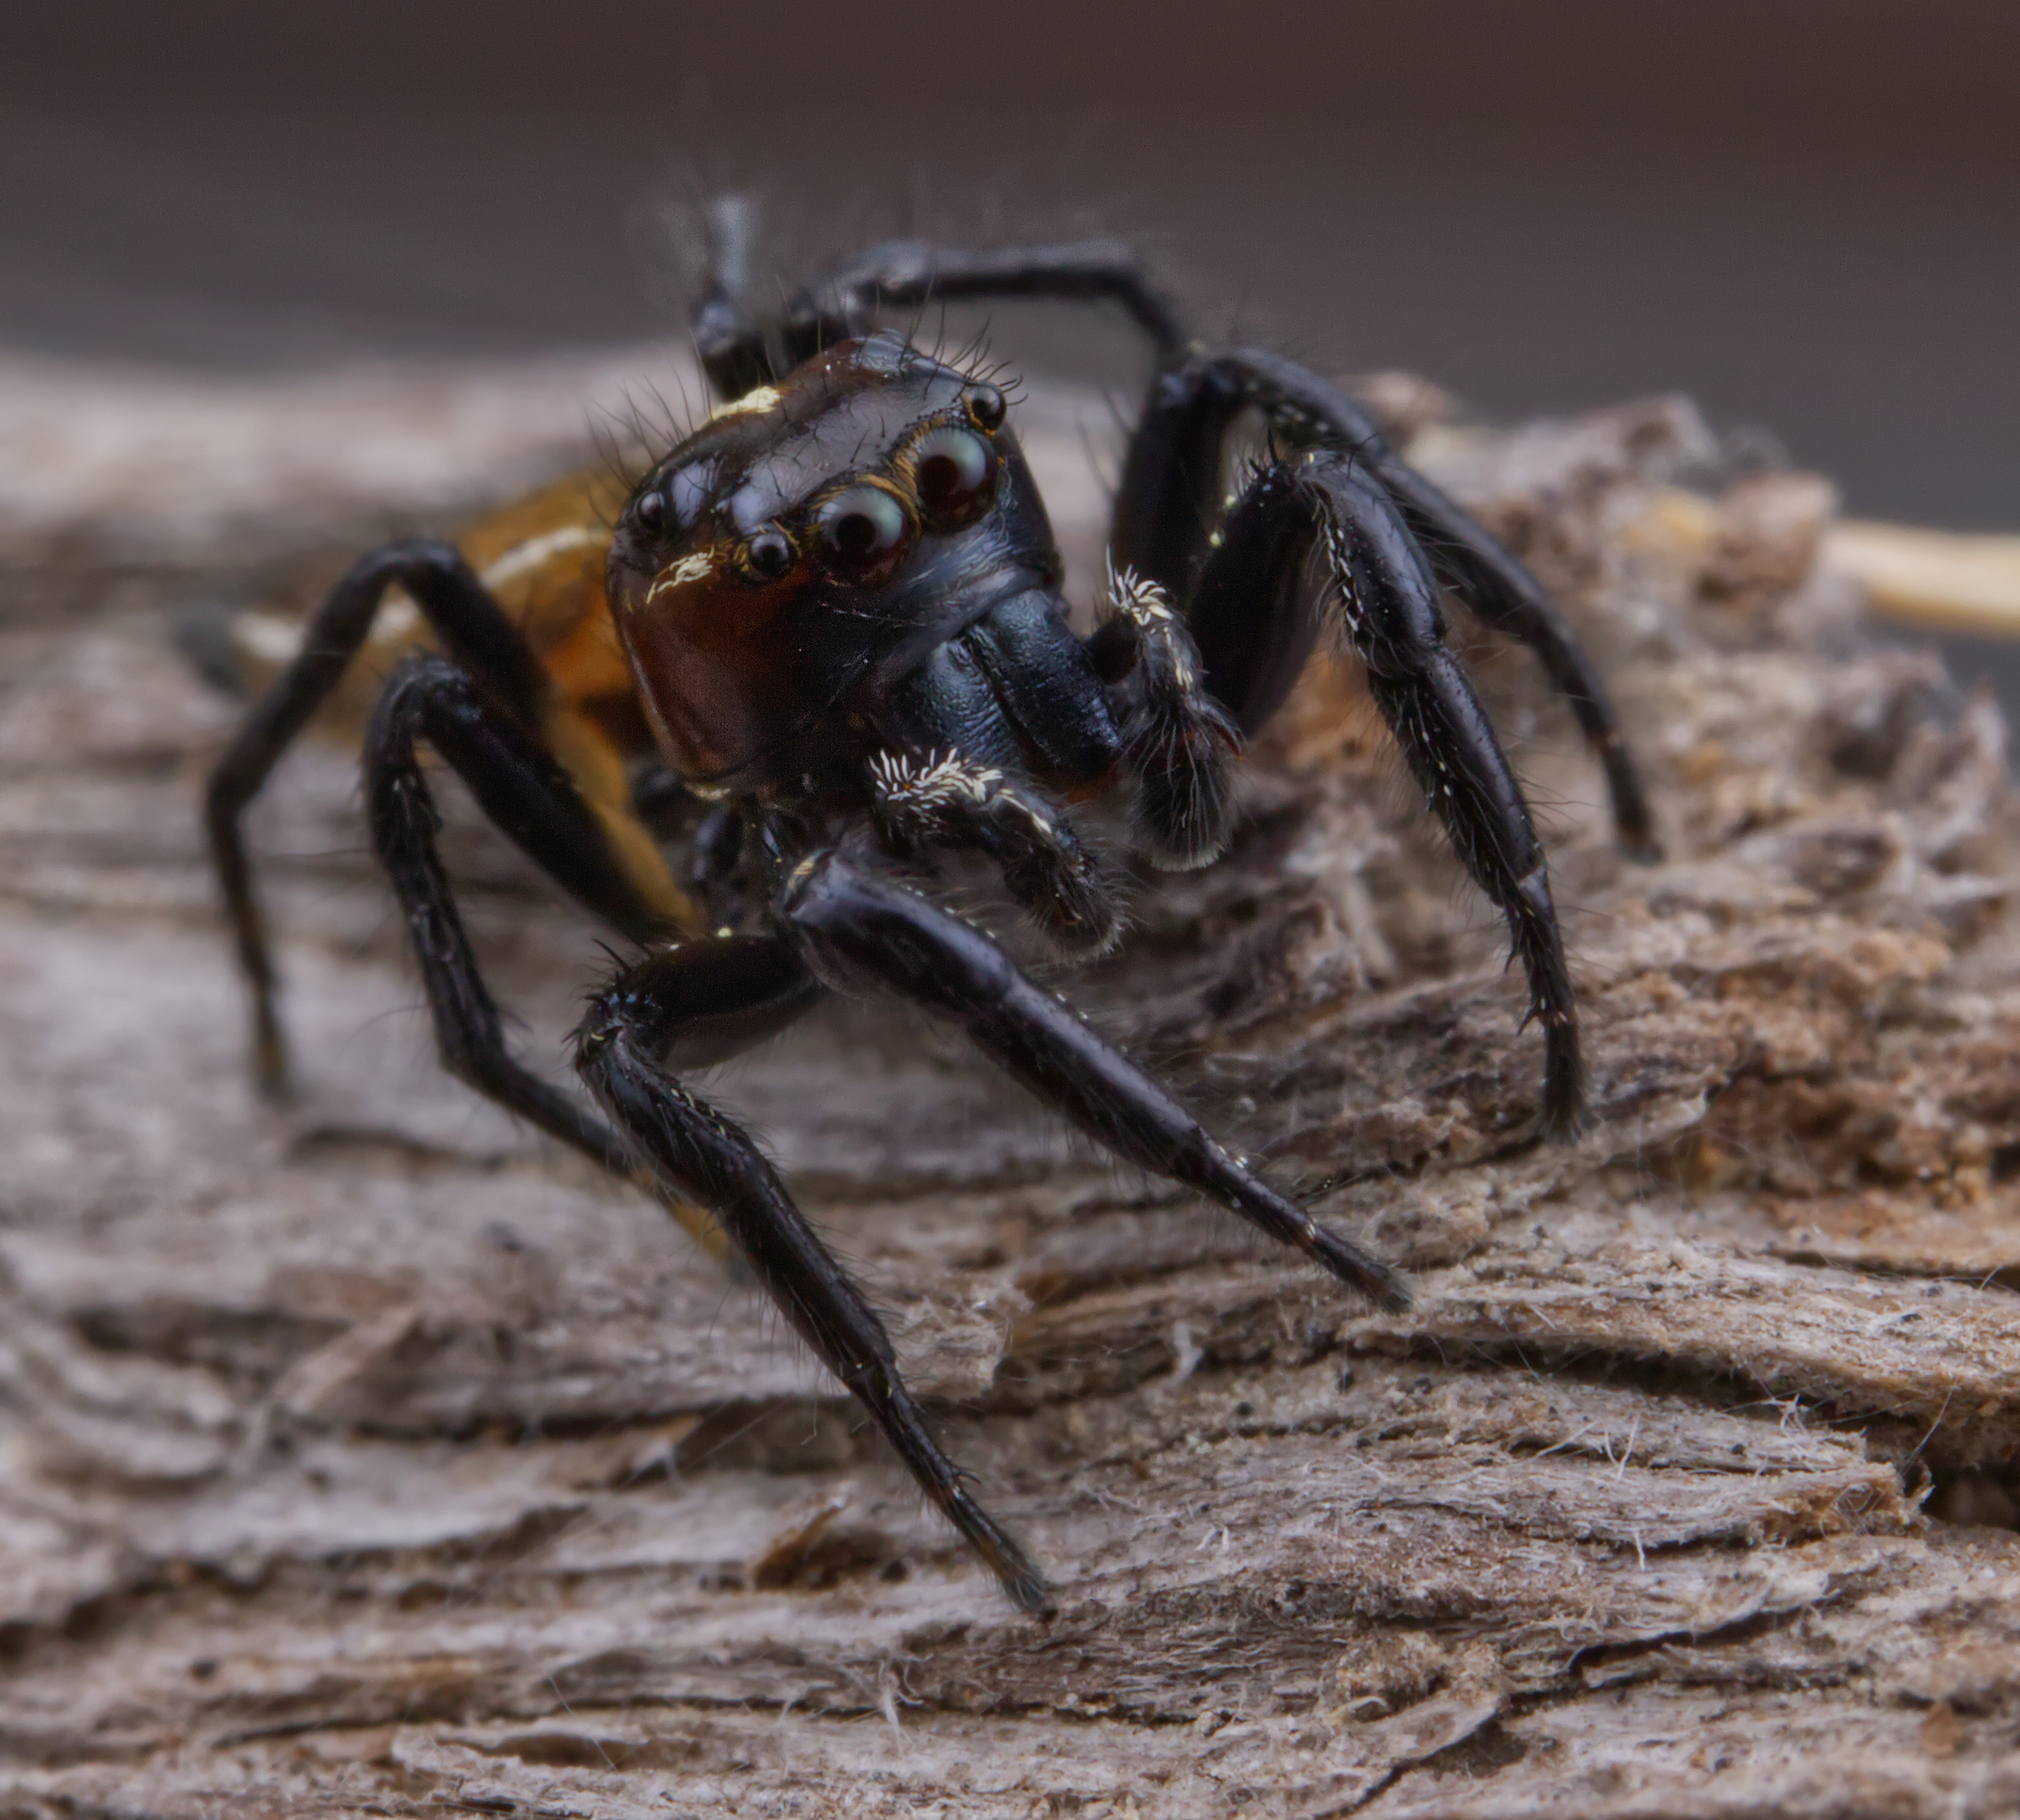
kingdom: Animalia
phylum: Arthropoda
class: Arachnida
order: Araneae
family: Salticidae
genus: Colonus
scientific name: Colonus puerperus
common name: Jumping spiders
